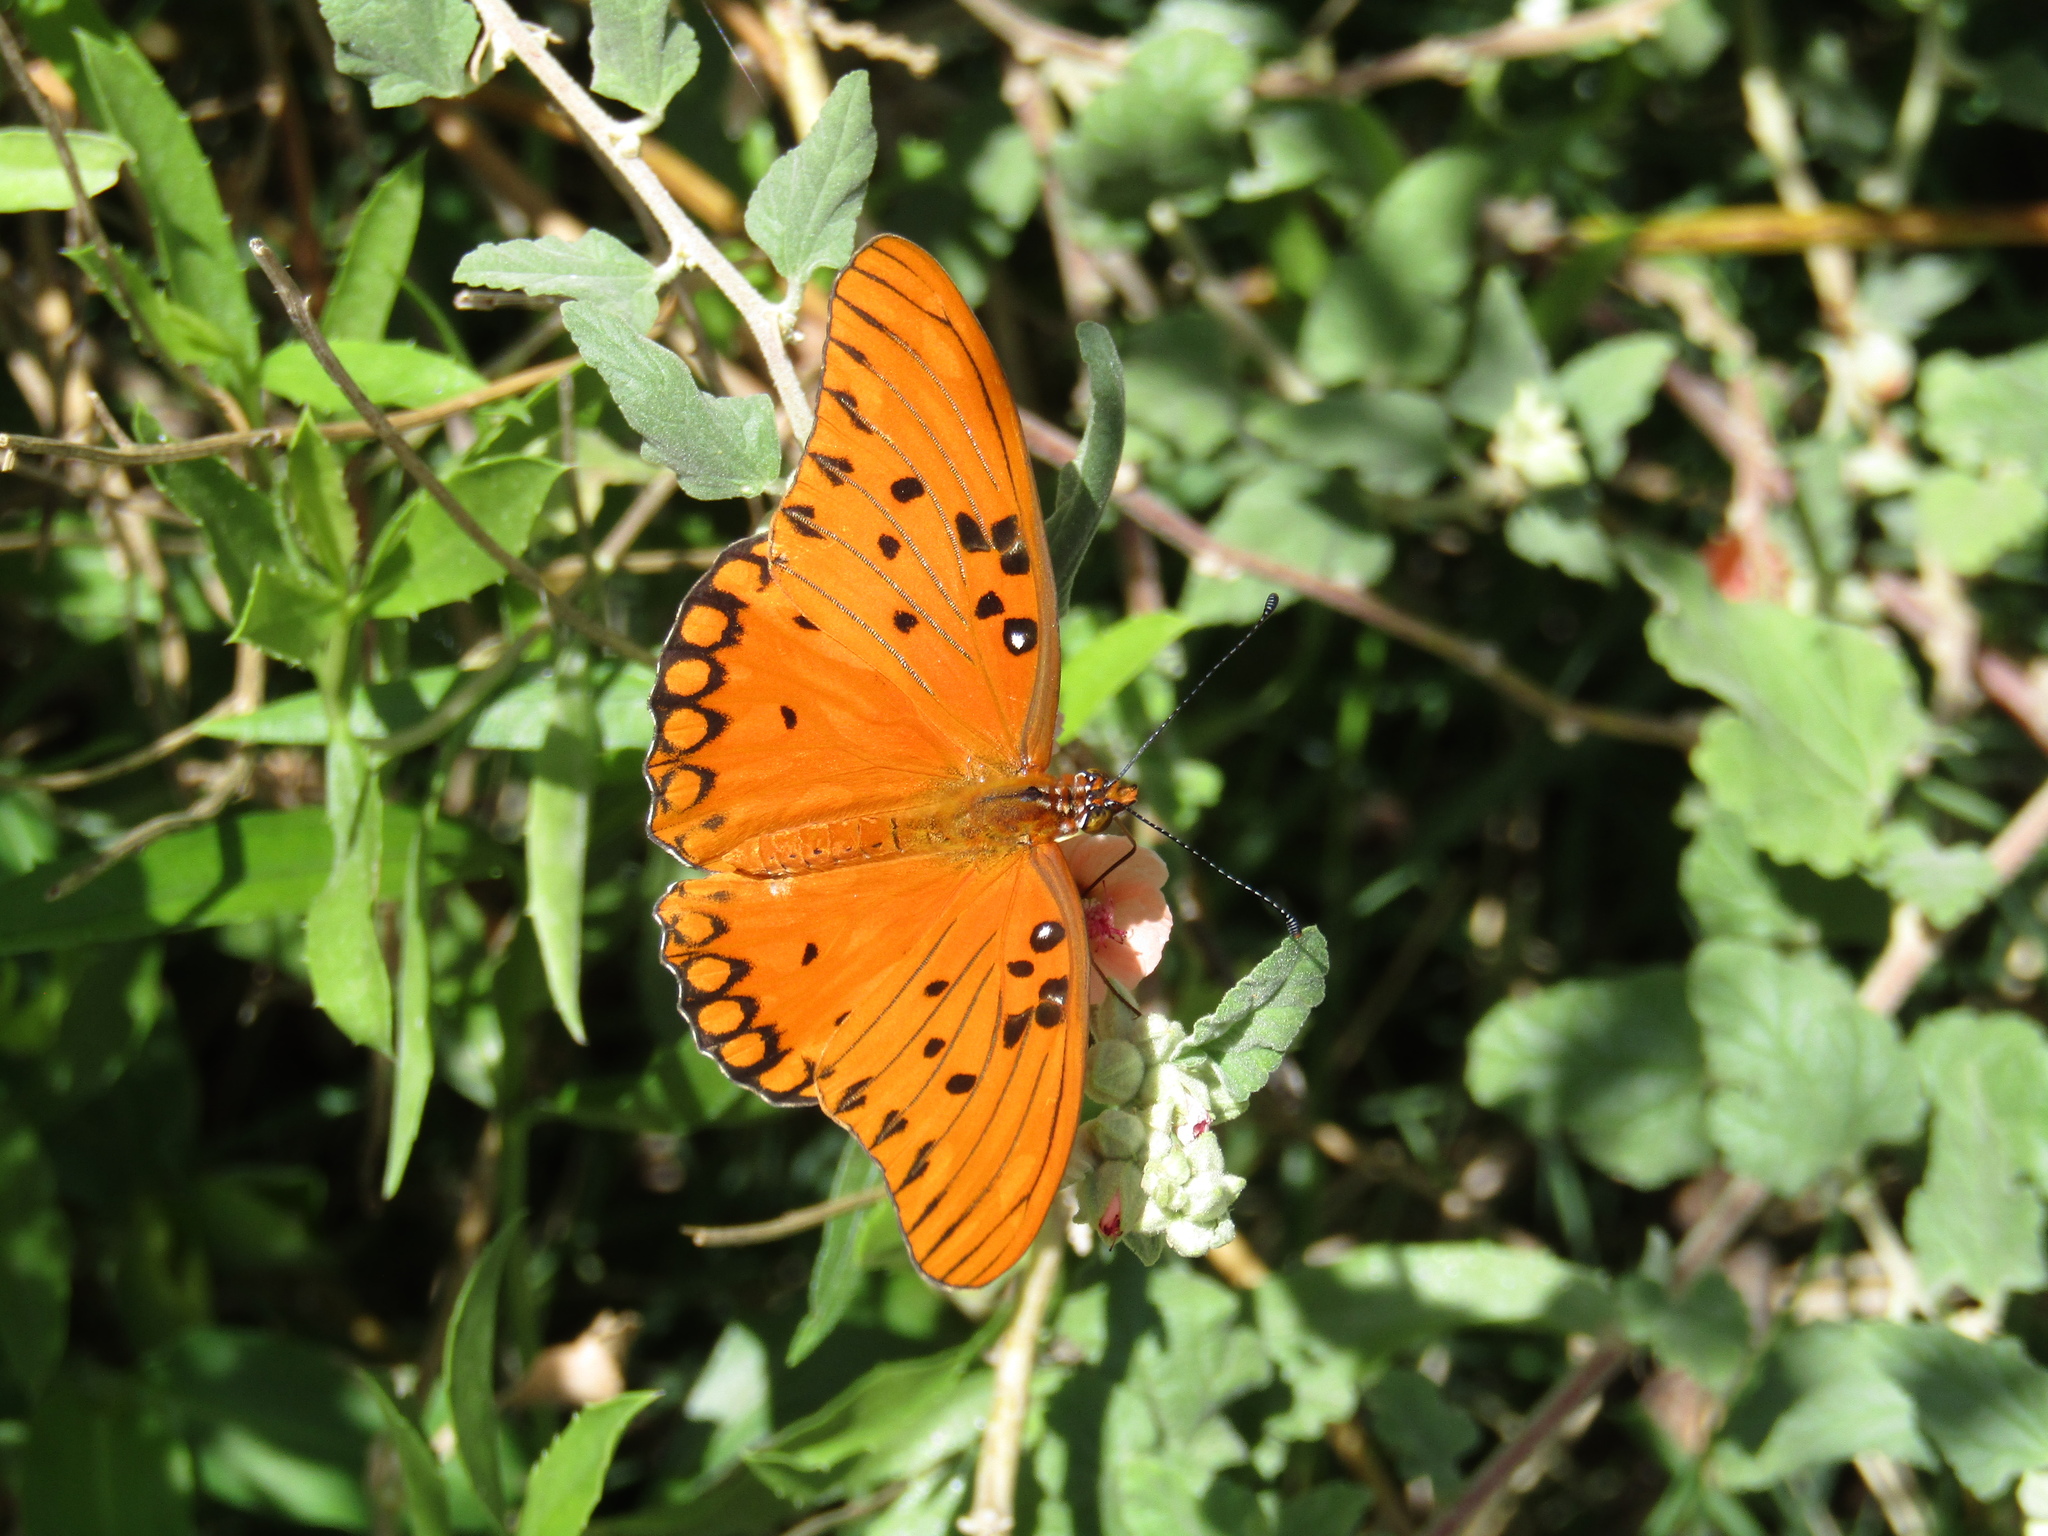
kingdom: Animalia
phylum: Arthropoda
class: Insecta
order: Lepidoptera
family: Nymphalidae
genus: Dione
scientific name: Dione vanillae
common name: Gulf fritillary
